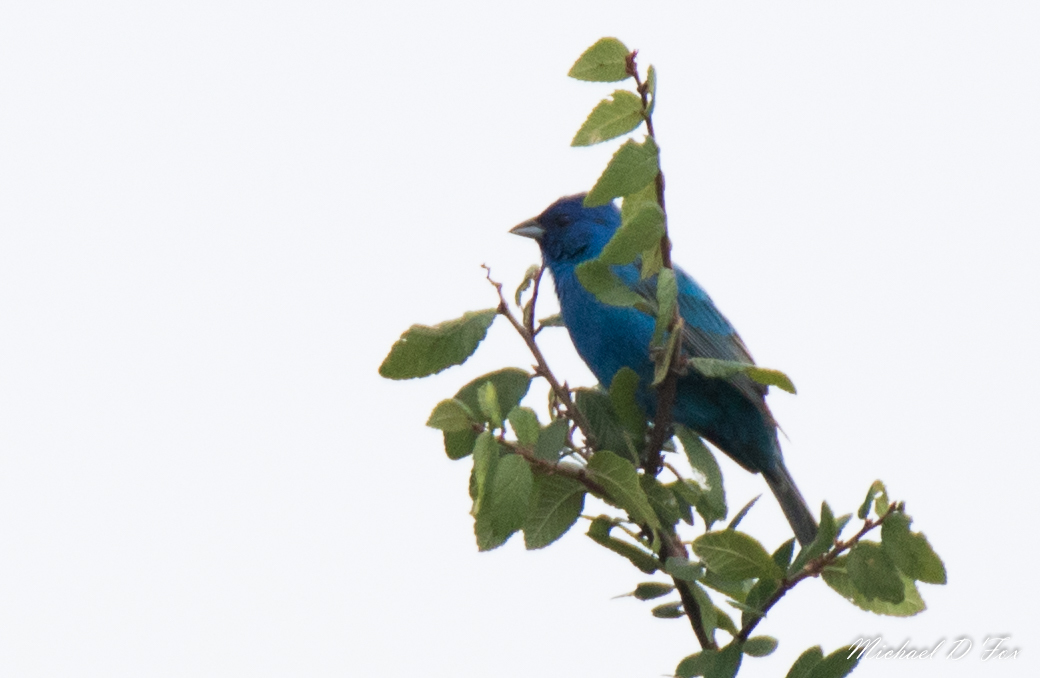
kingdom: Animalia
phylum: Chordata
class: Aves
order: Passeriformes
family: Cardinalidae
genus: Passerina
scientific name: Passerina cyanea
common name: Indigo bunting
